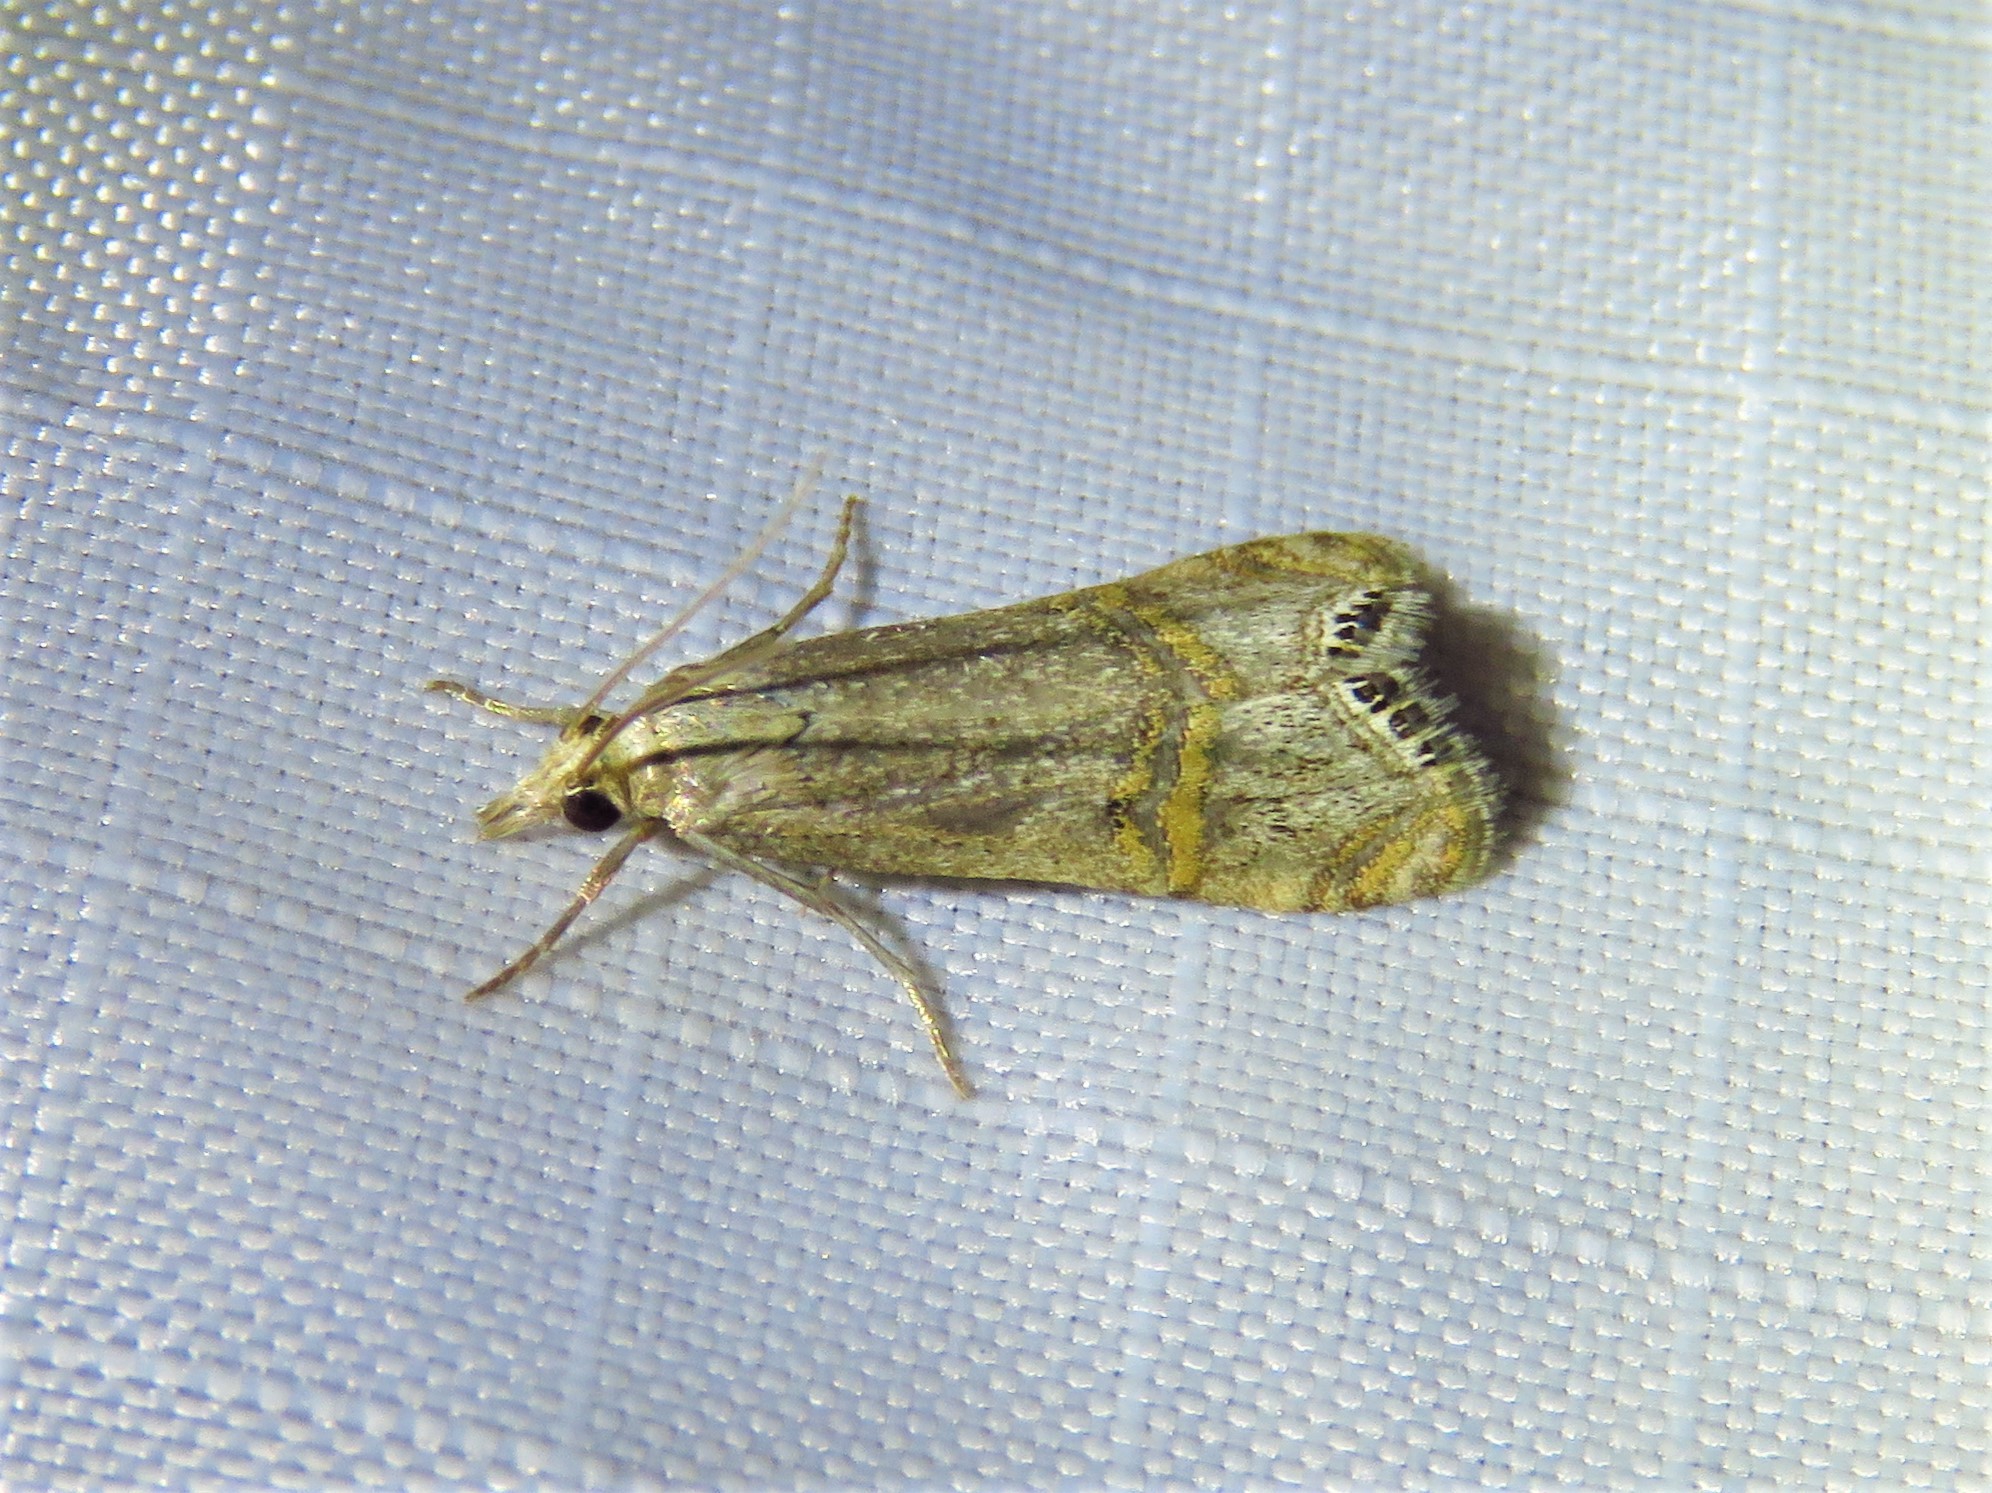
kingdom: Animalia
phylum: Arthropoda
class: Insecta
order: Lepidoptera
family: Crambidae
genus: Euchromius
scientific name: Euchromius ocellea
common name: Necklace veneer moth
